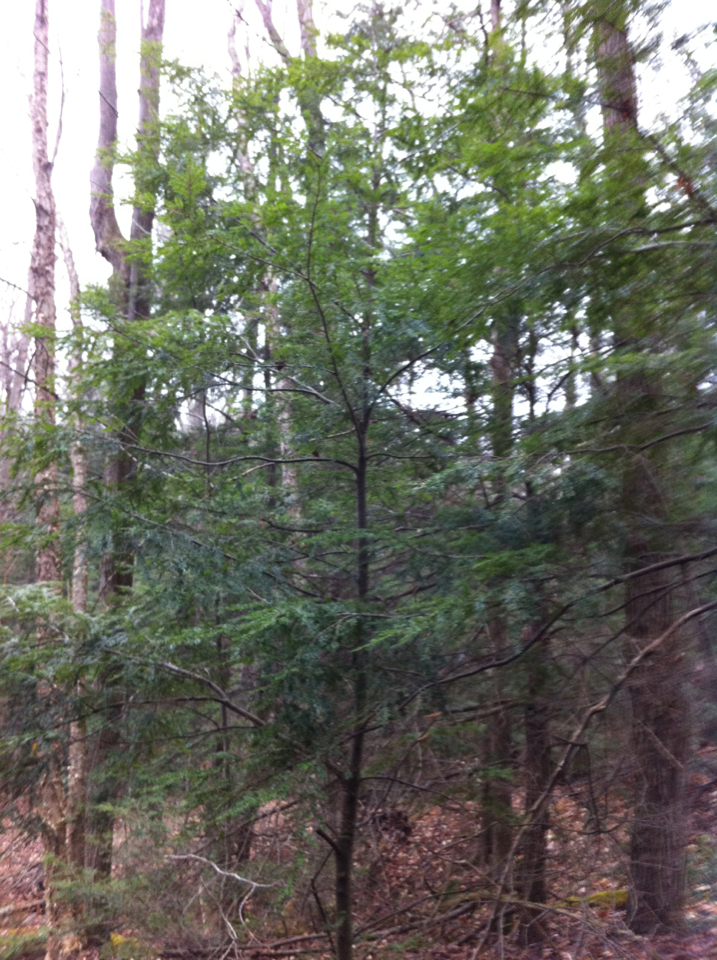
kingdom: Plantae
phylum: Tracheophyta
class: Pinopsida
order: Pinales
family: Pinaceae
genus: Tsuga
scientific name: Tsuga canadensis
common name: Eastern hemlock
